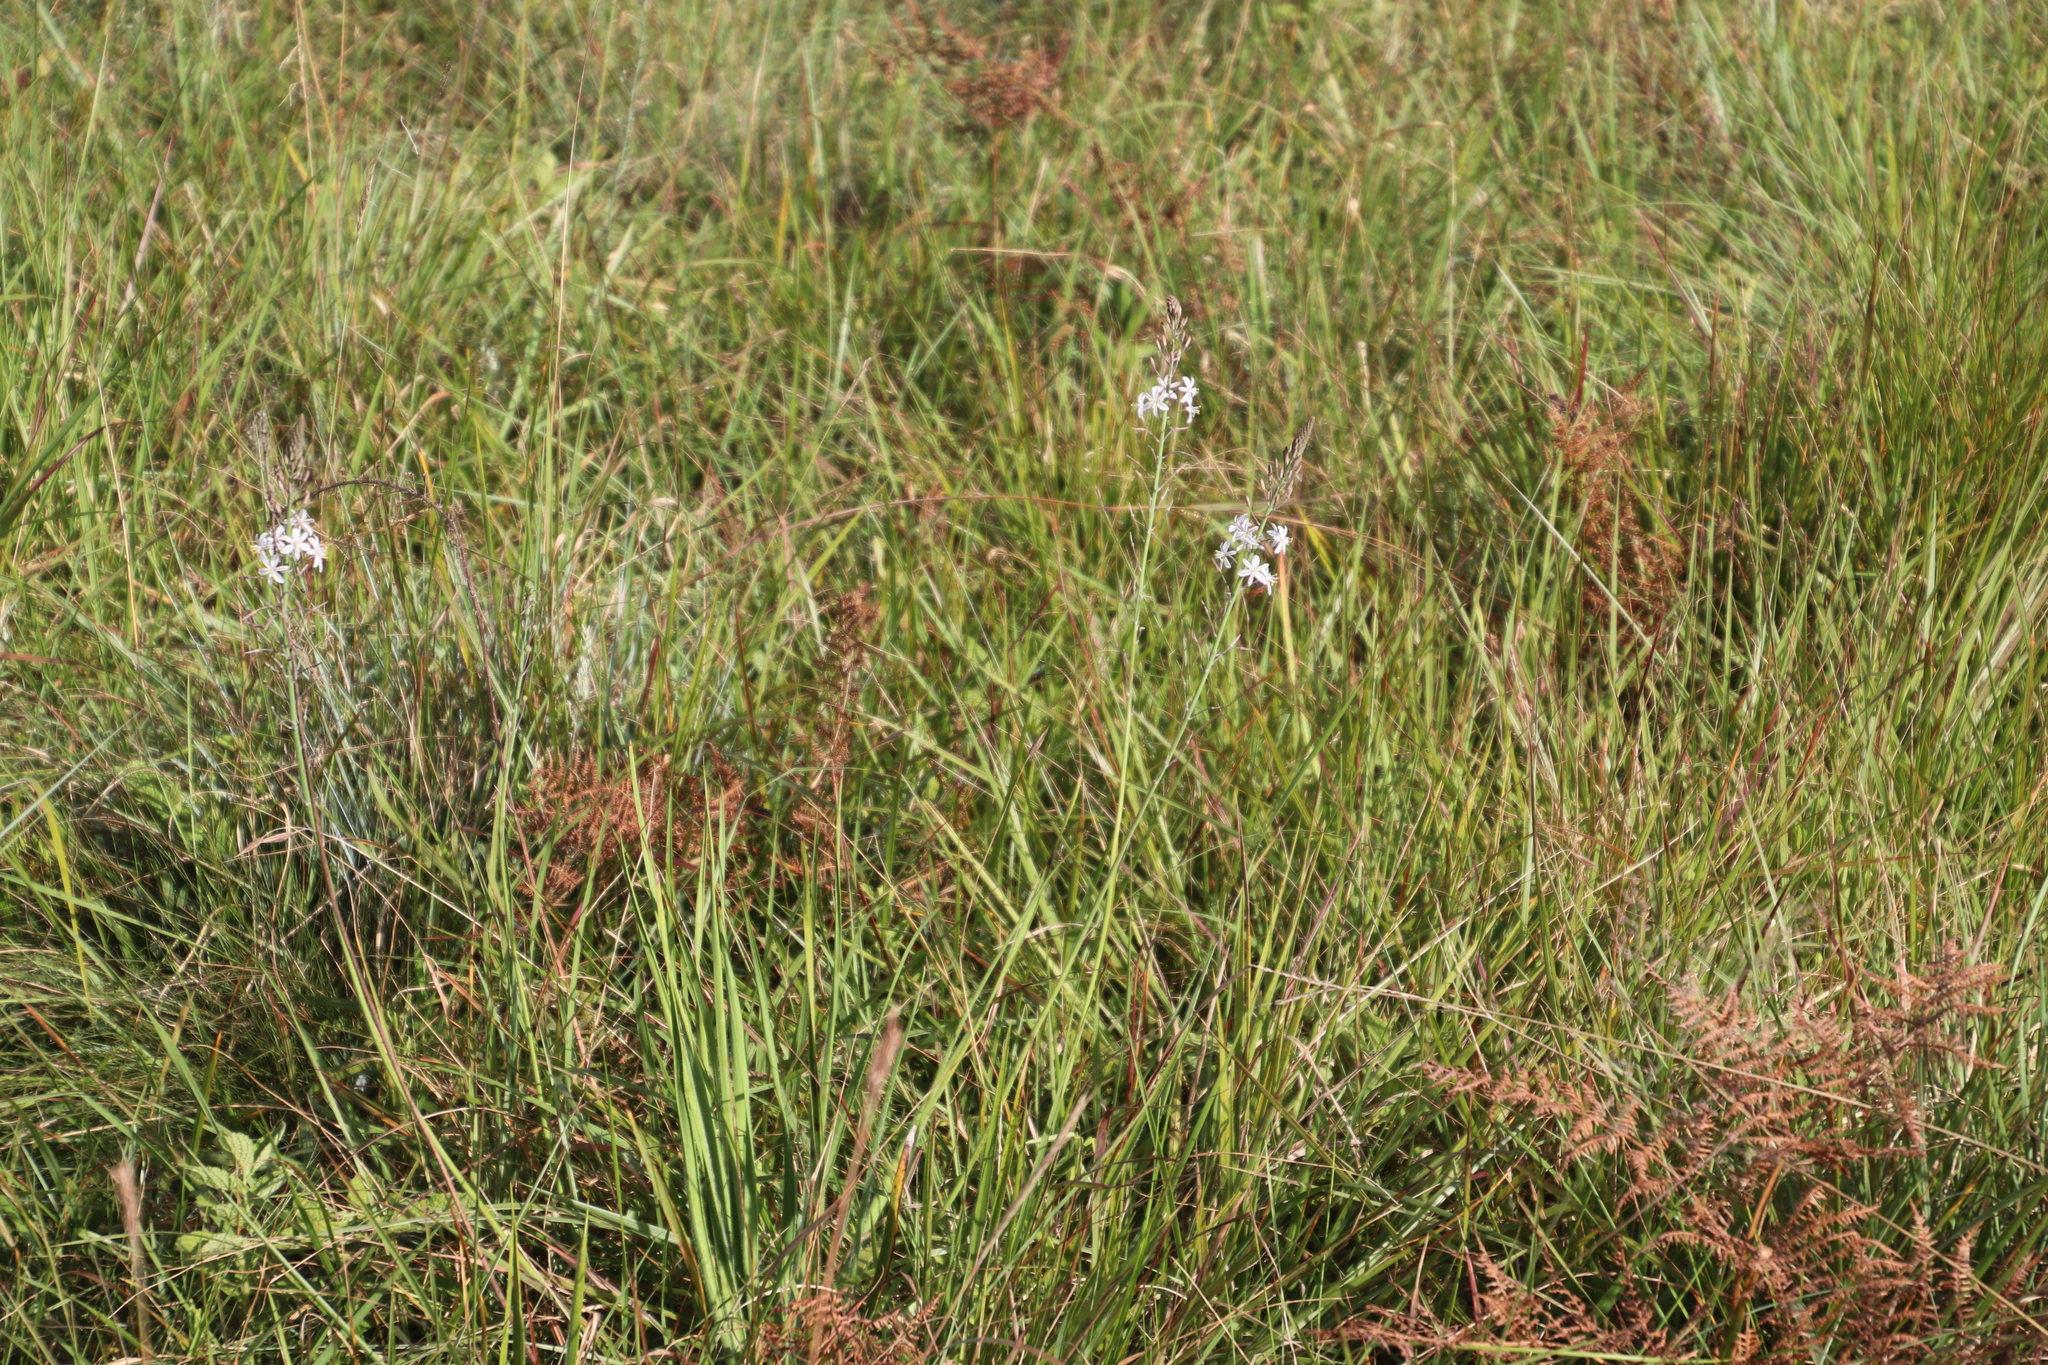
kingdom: Plantae
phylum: Tracheophyta
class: Liliopsida
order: Asparagales
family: Asphodelaceae
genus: Trachyandra
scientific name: Trachyandra saltii
